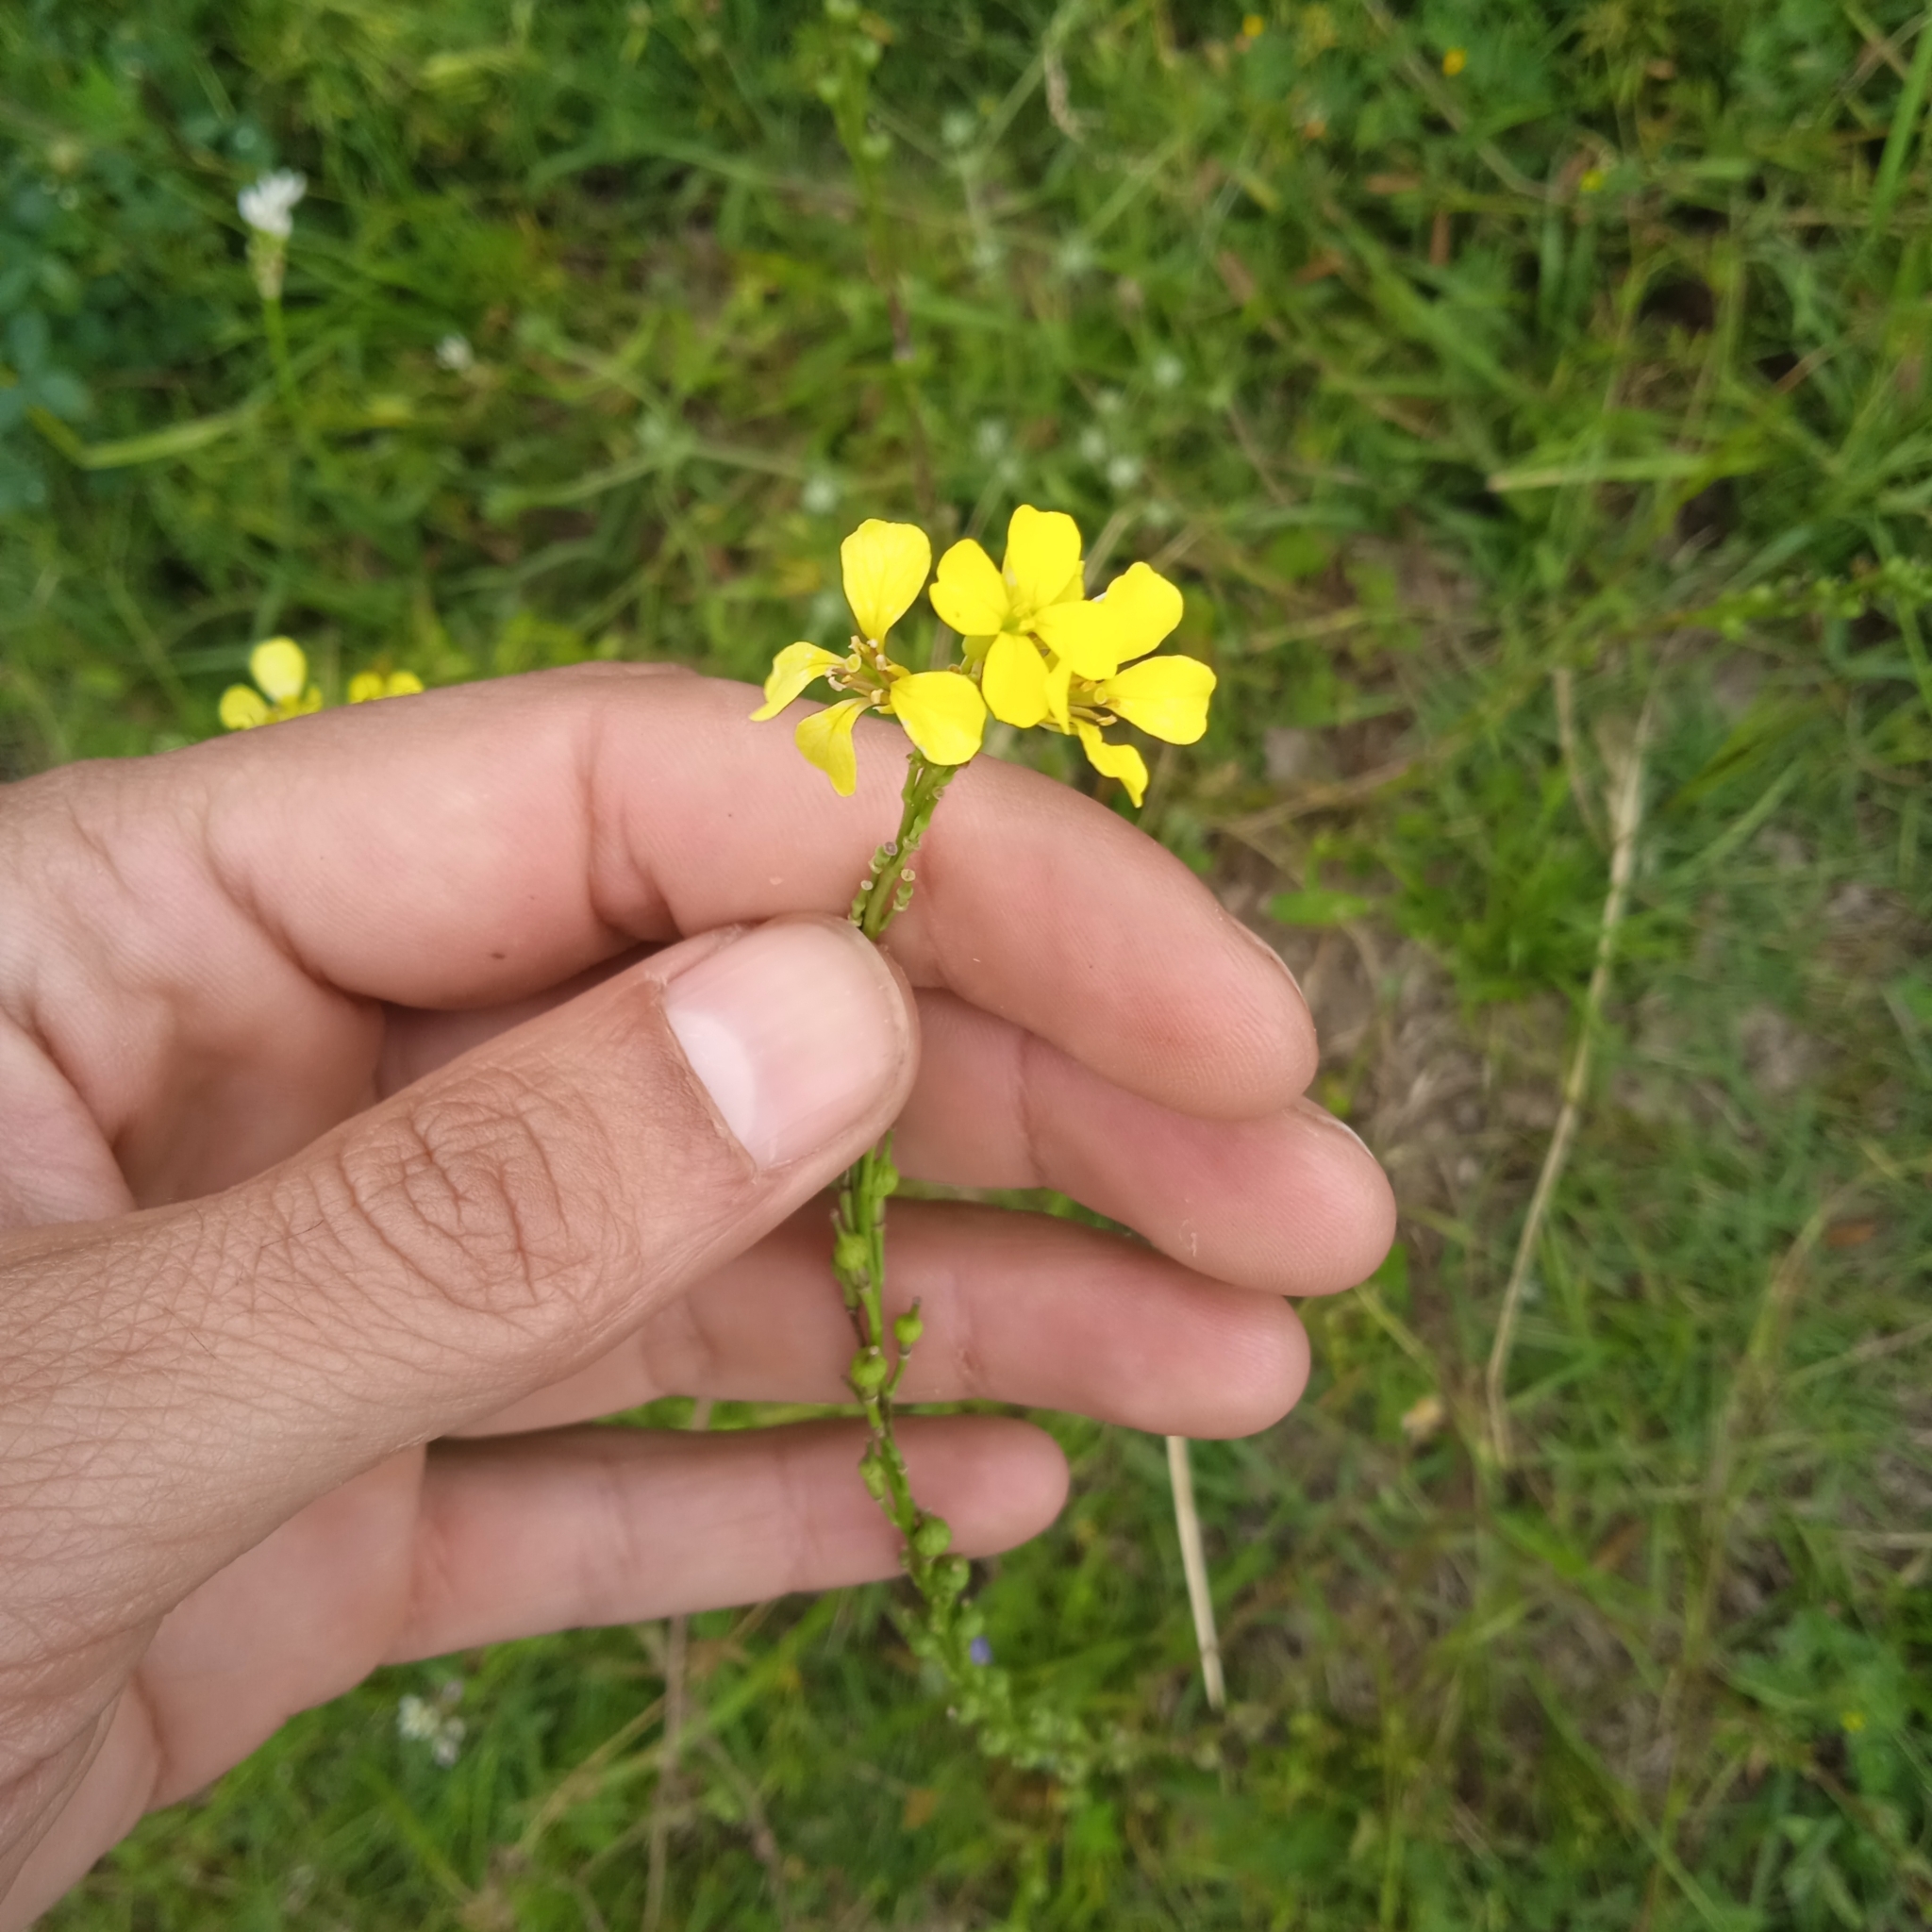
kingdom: Plantae
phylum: Tracheophyta
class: Magnoliopsida
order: Brassicales
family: Brassicaceae
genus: Rapistrum
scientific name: Rapistrum rugosum
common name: Annual bastardcabbage
